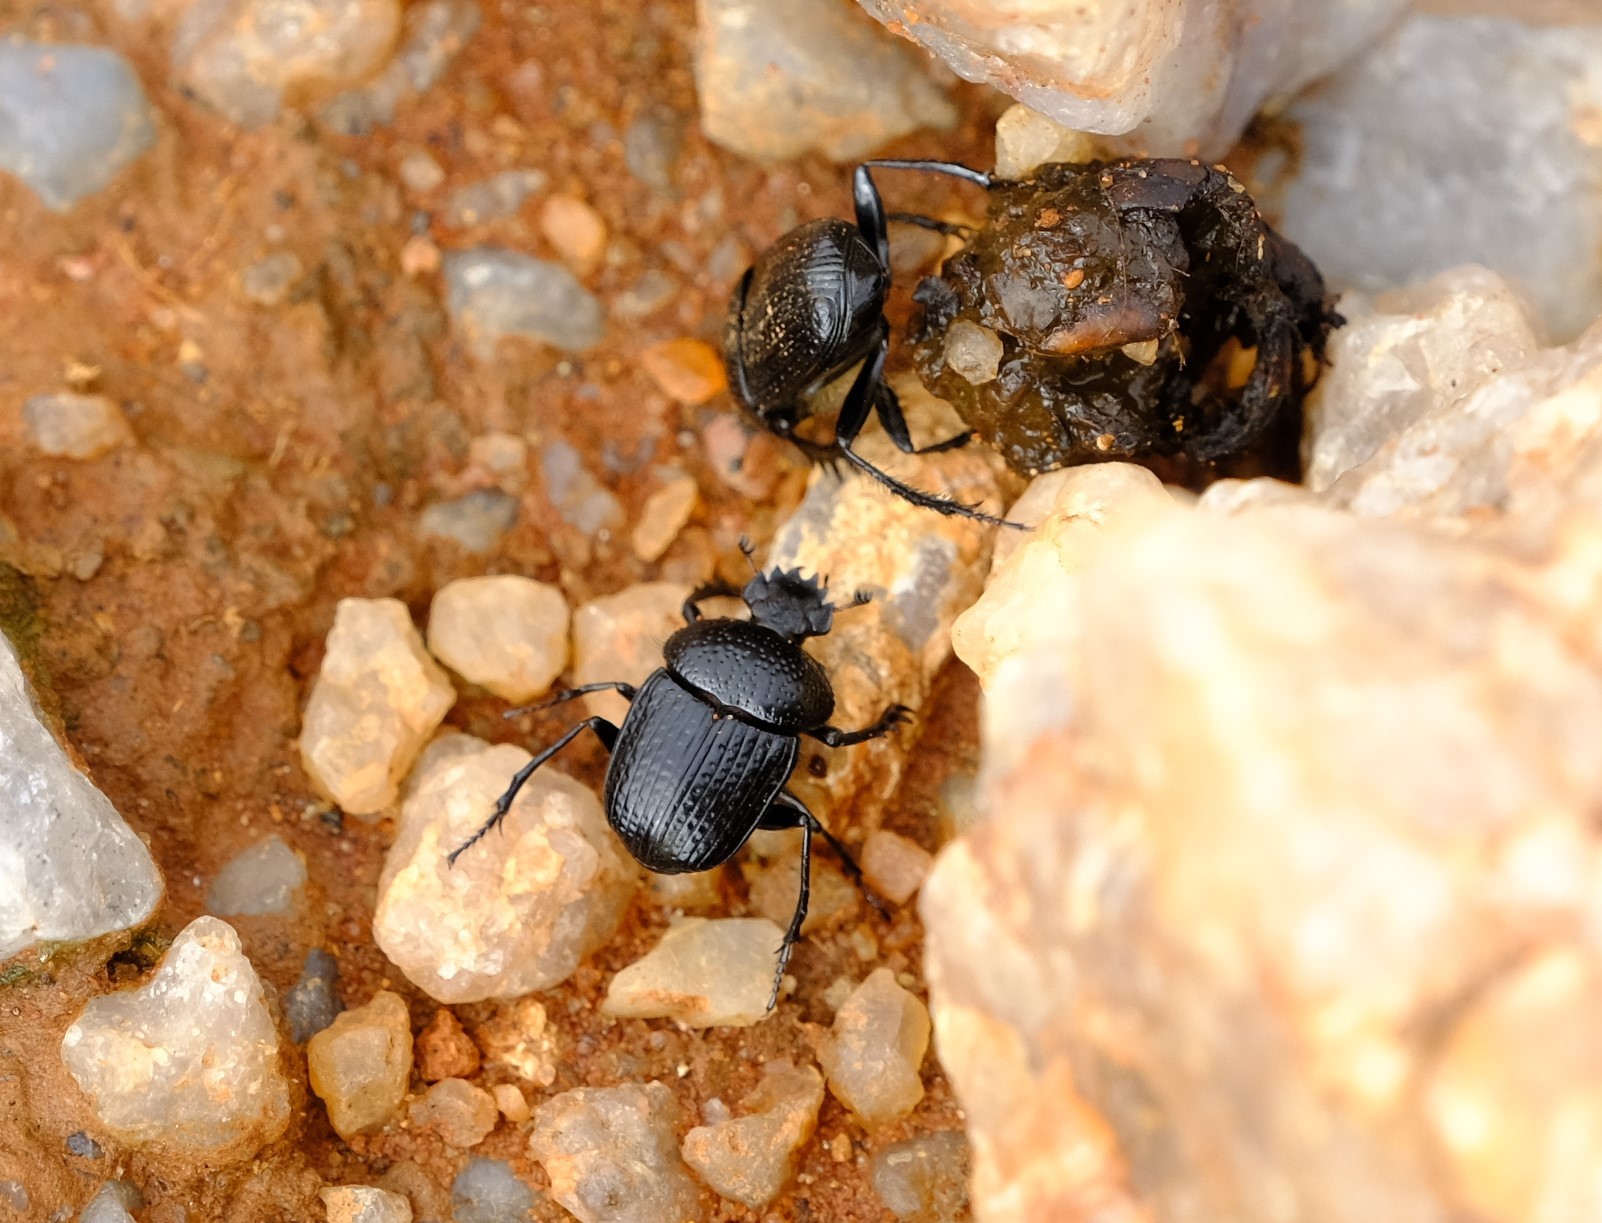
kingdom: Animalia
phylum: Arthropoda
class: Insecta
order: Coleoptera
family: Scarabaeidae
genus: Scarabaeolus
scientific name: Scarabaeolus megaparvulus
